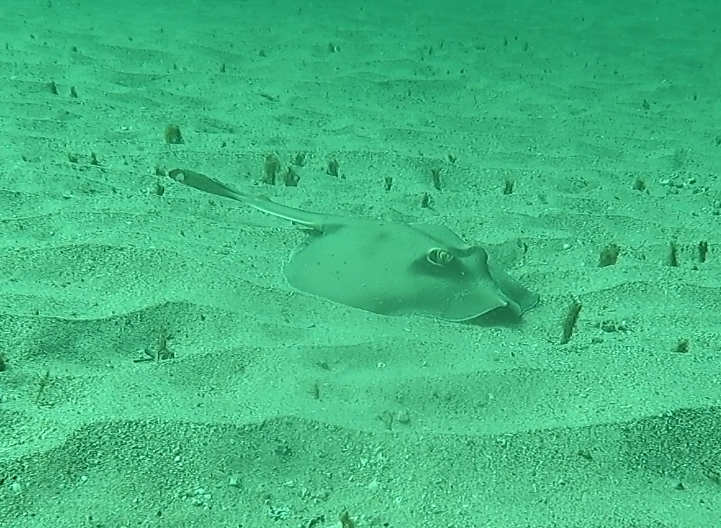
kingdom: Animalia
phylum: Chordata
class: Elasmobranchii
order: Myliobatiformes
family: Urolophidae
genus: Urolophus
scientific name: Urolophus kapalensis
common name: Kapala stingaree
